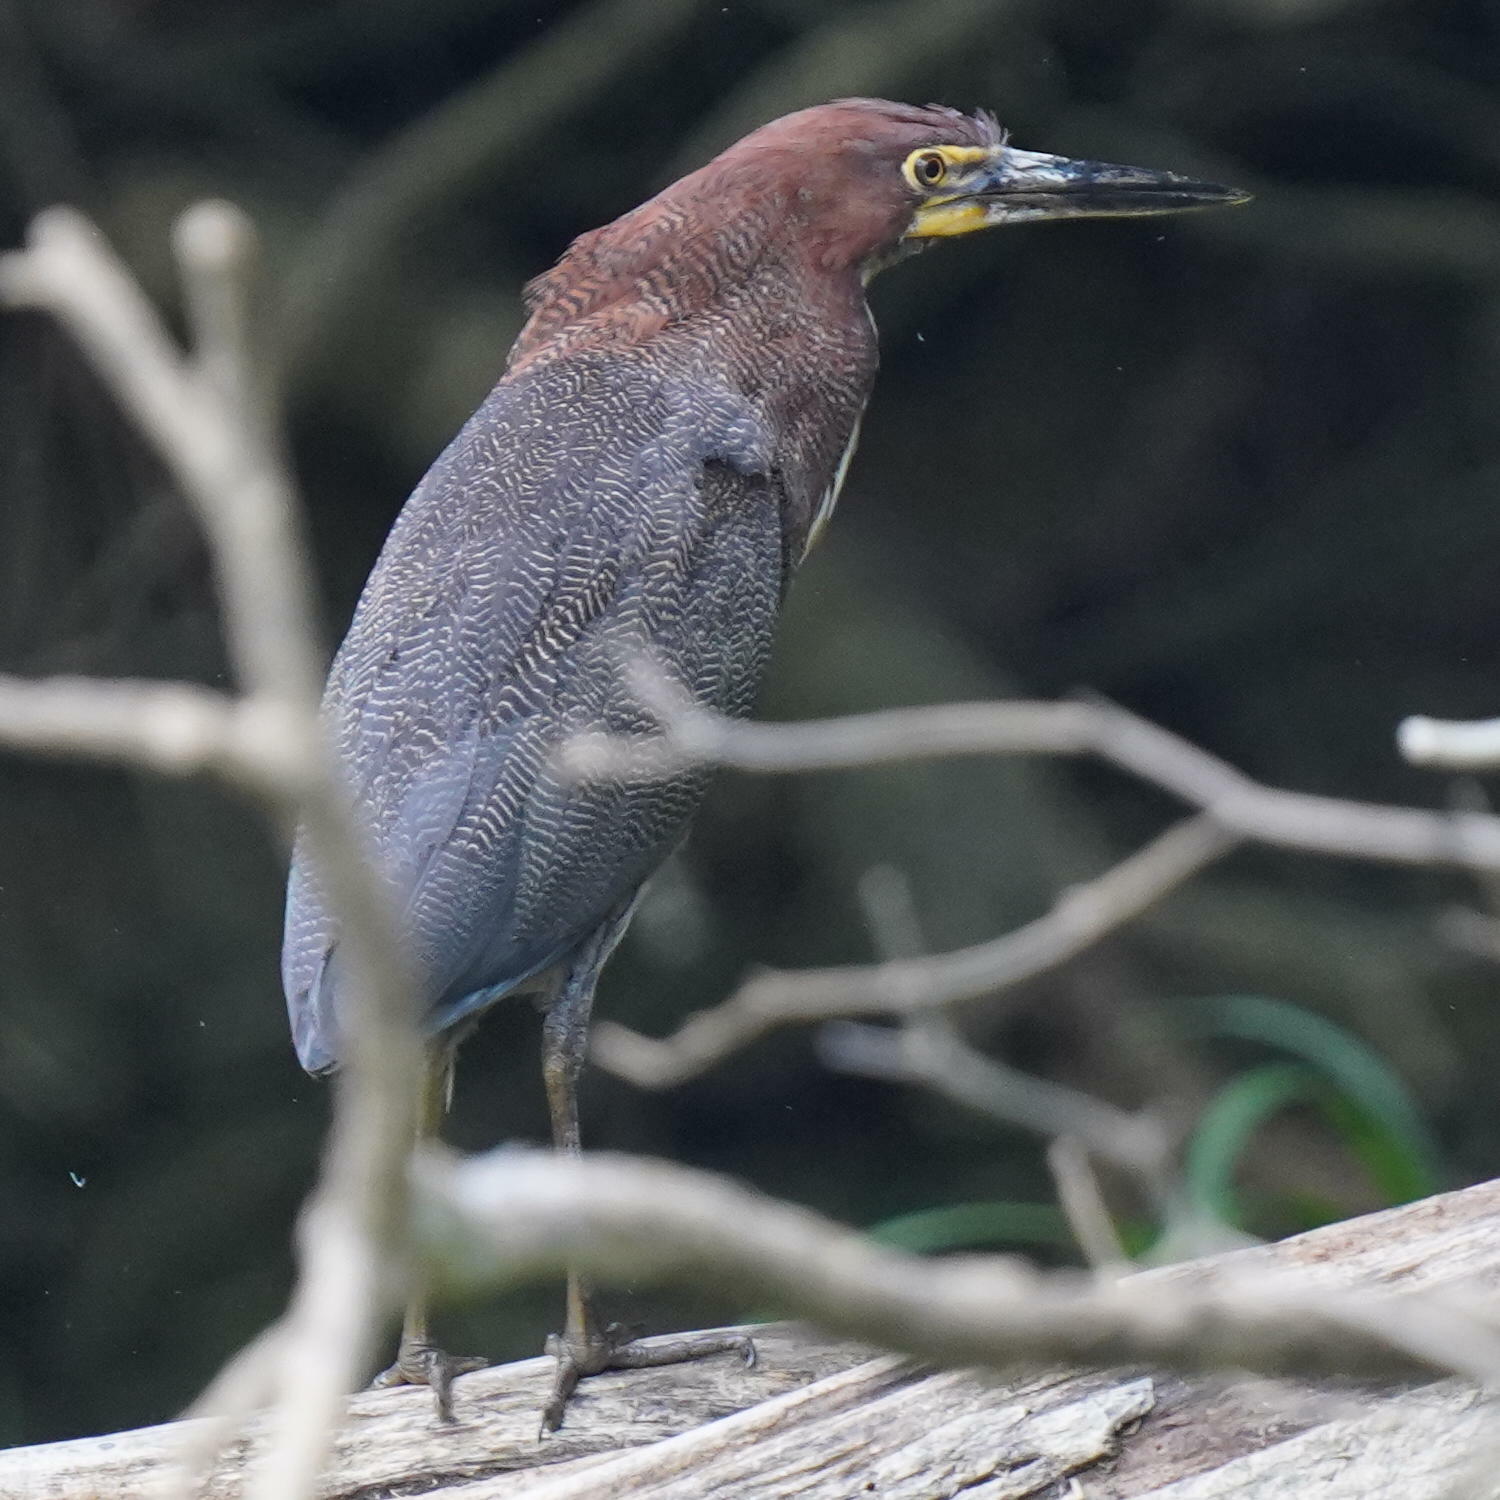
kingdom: Animalia
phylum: Chordata
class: Aves
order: Pelecaniformes
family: Ardeidae
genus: Tigrisoma
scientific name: Tigrisoma lineatum
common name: Rufescent tiger-heron
